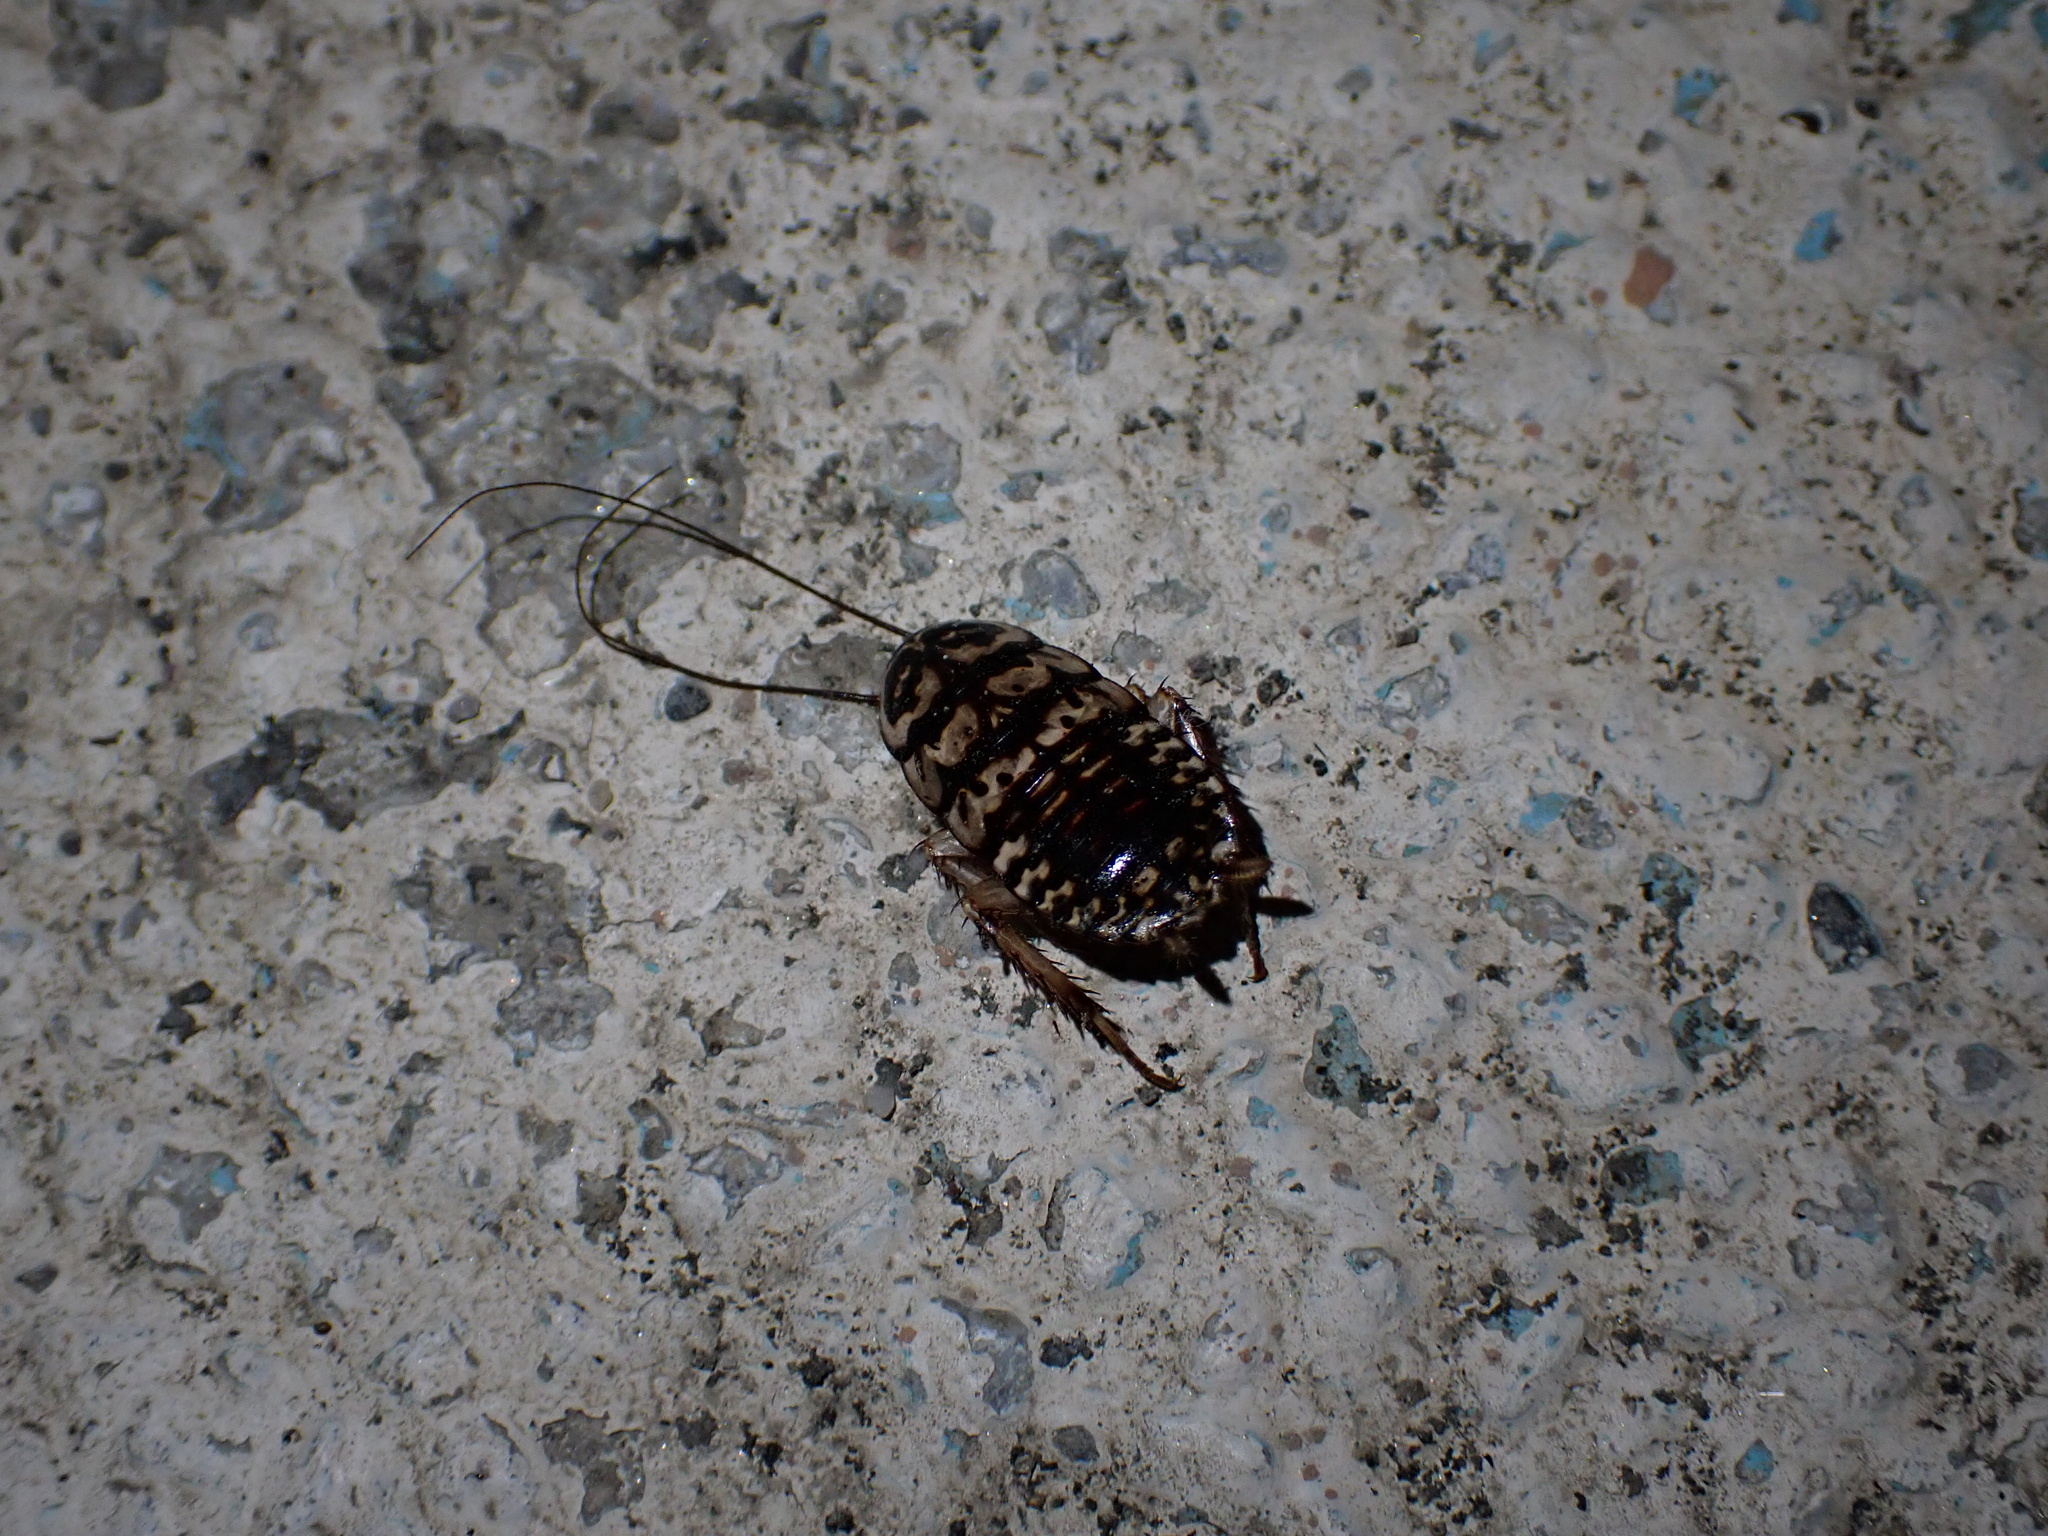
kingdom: Animalia
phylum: Arthropoda
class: Insecta
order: Blattodea
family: Blattidae
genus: Neostylopyga
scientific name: Neostylopyga rhombifolia
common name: Harlequin cockroach
